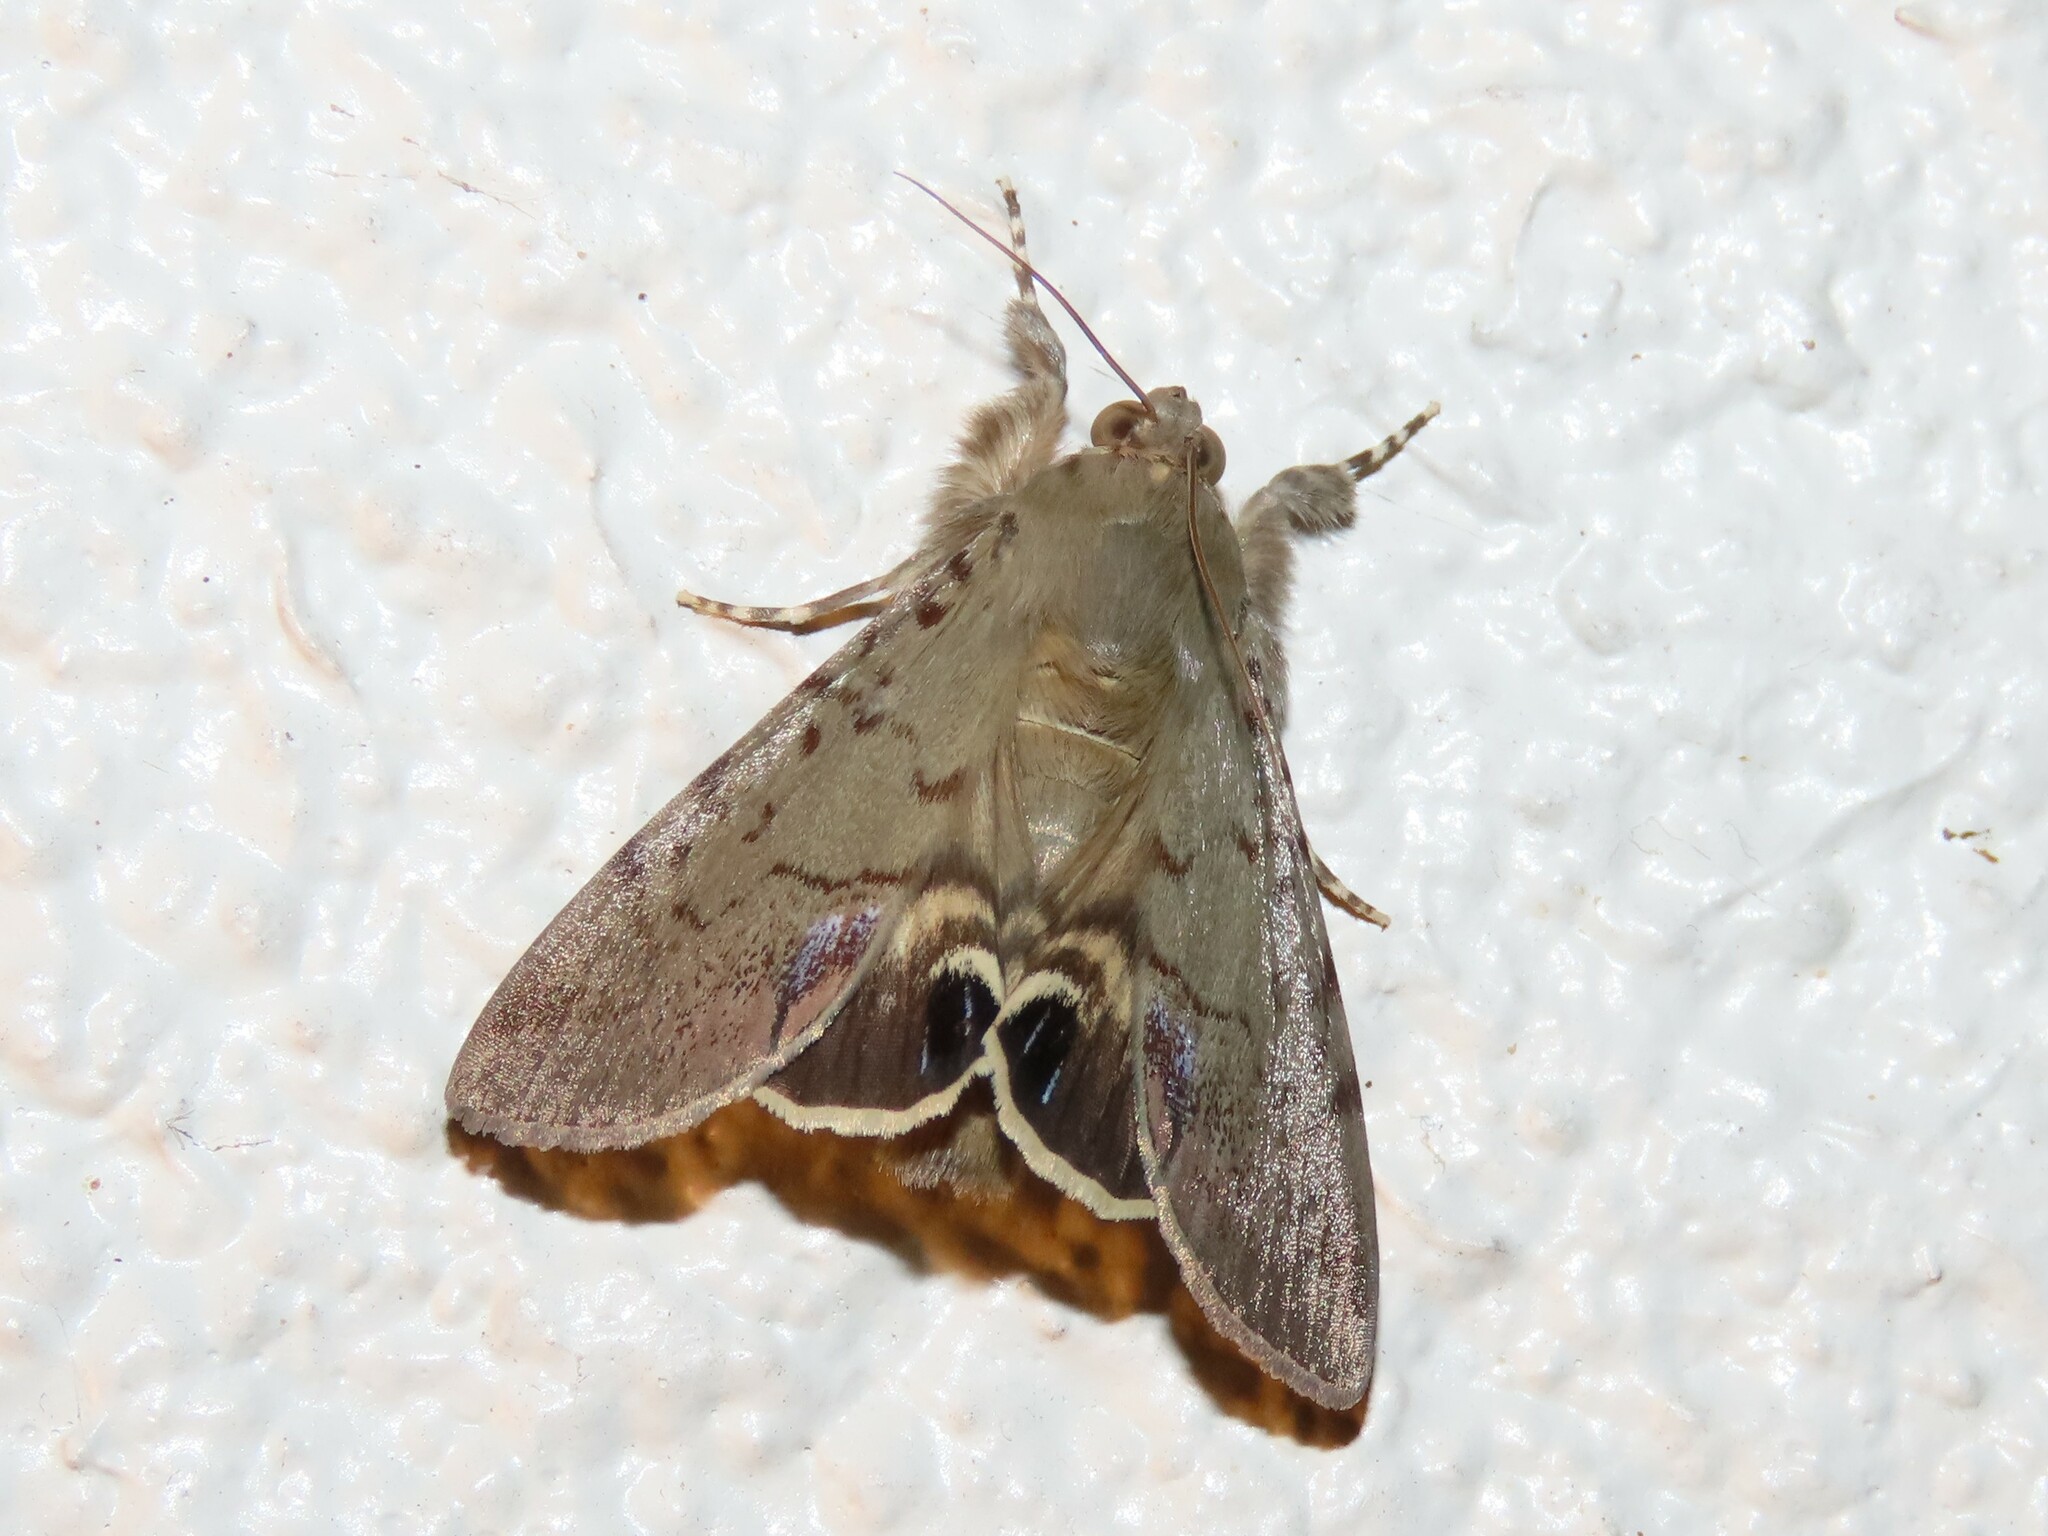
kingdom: Animalia
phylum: Arthropoda
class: Insecta
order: Lepidoptera
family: Erebidae
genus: Litoprosopus
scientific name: Litoprosopus futilis
